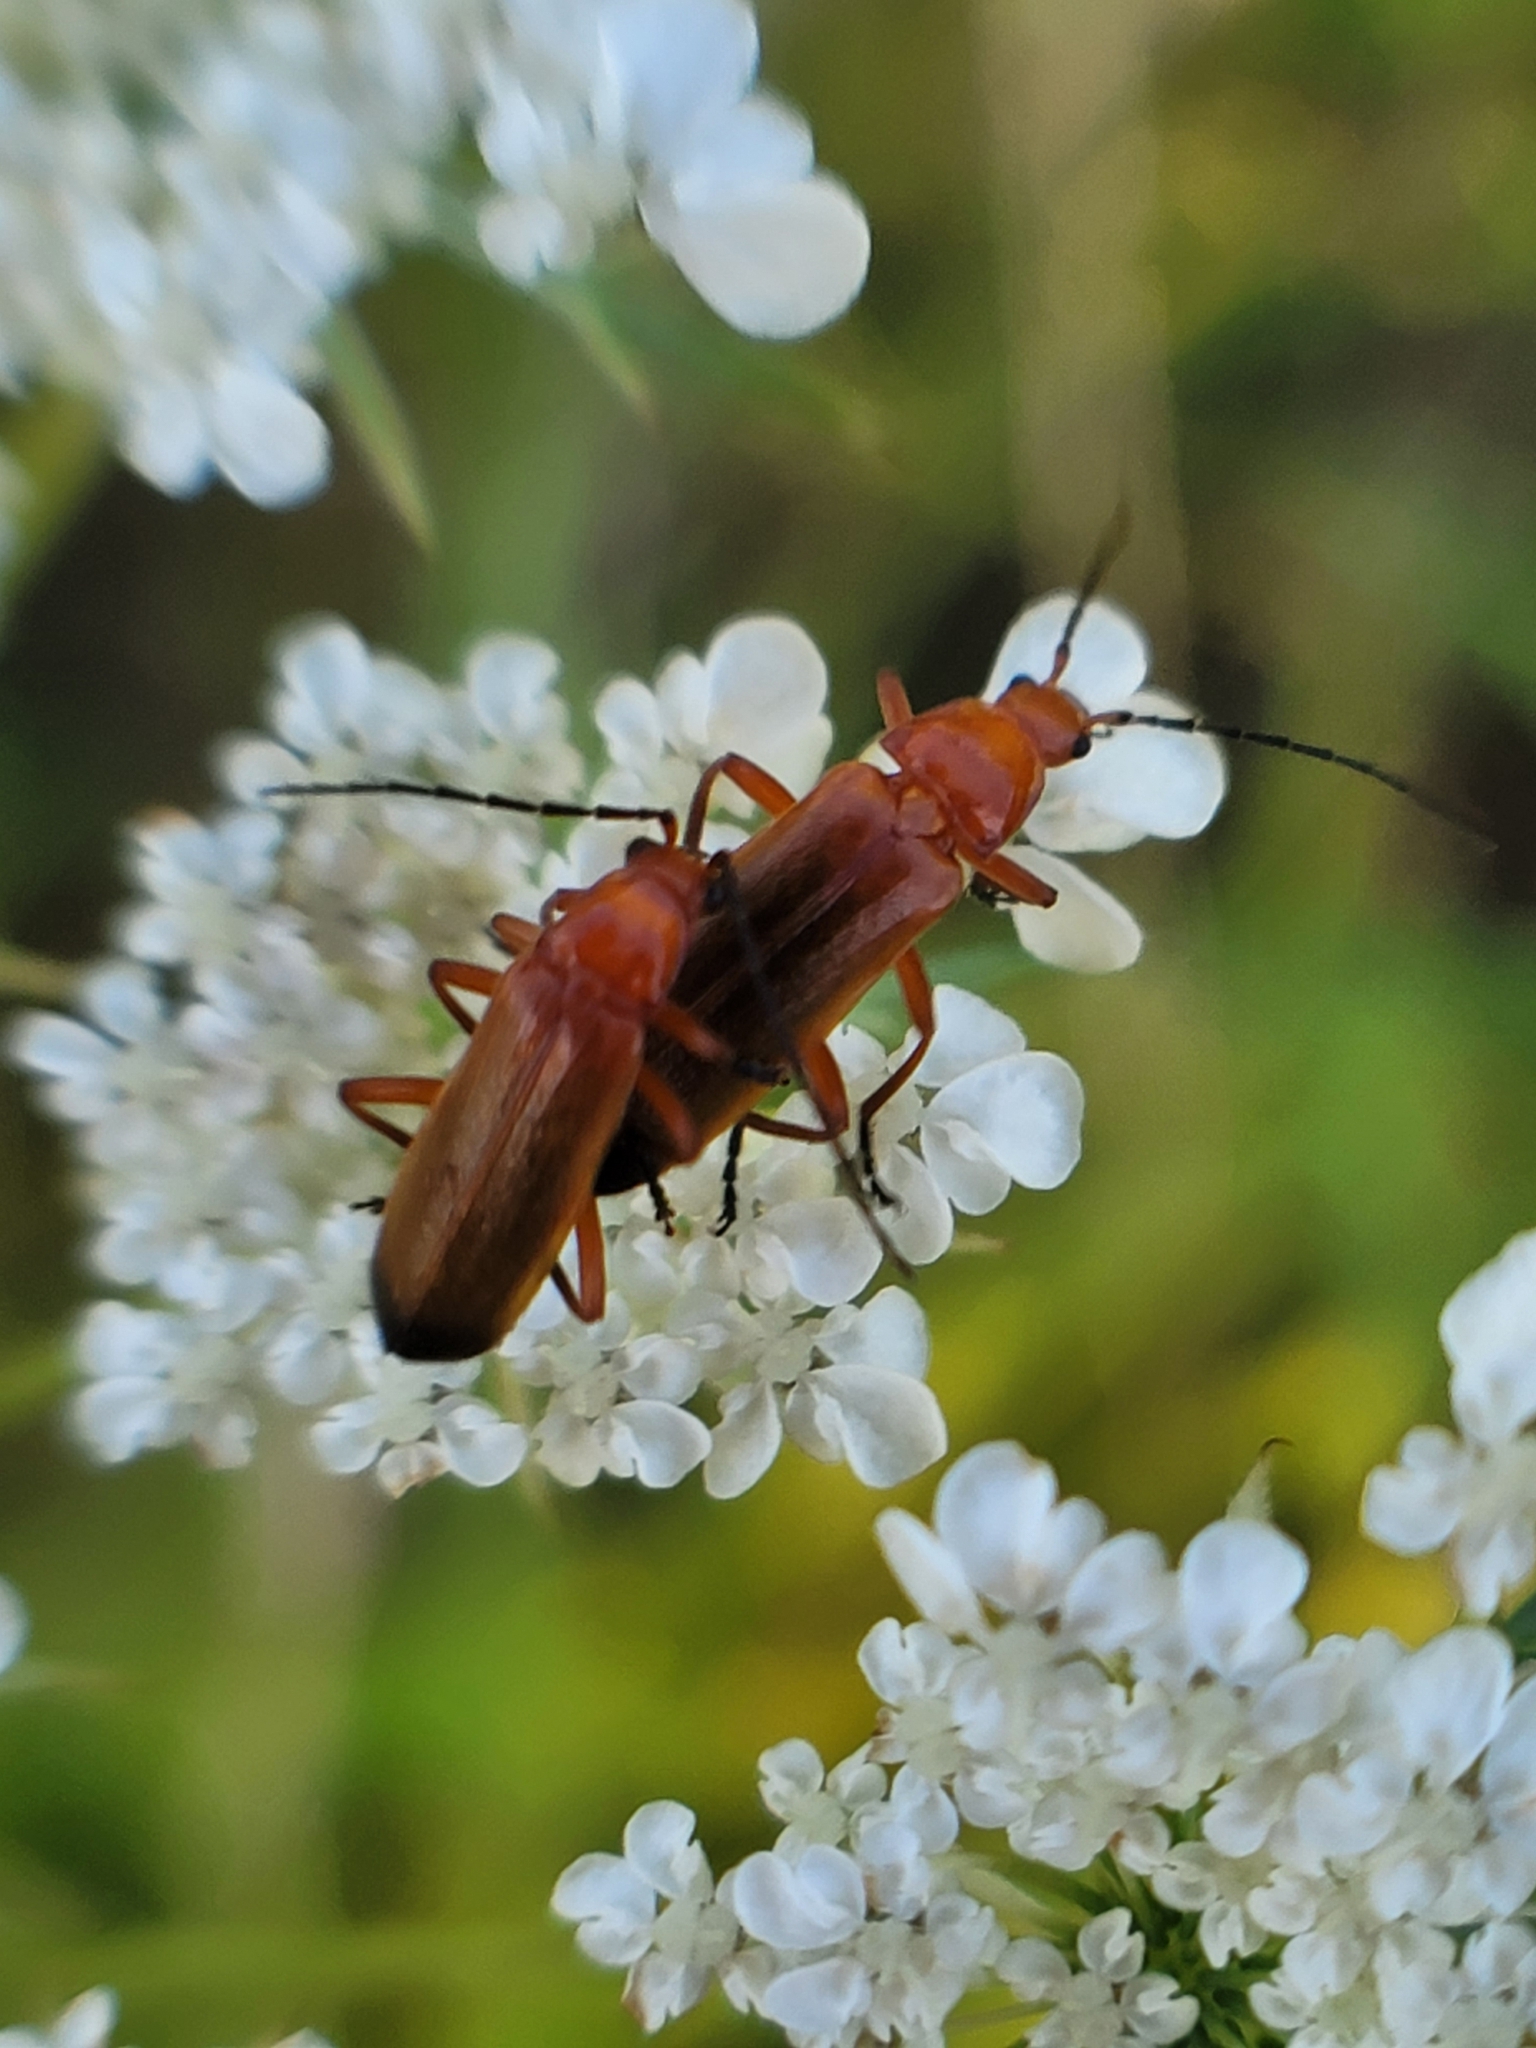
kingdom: Animalia
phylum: Arthropoda
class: Insecta
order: Coleoptera
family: Cantharidae
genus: Rhagonycha
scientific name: Rhagonycha fulva
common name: Common red soldier beetle
